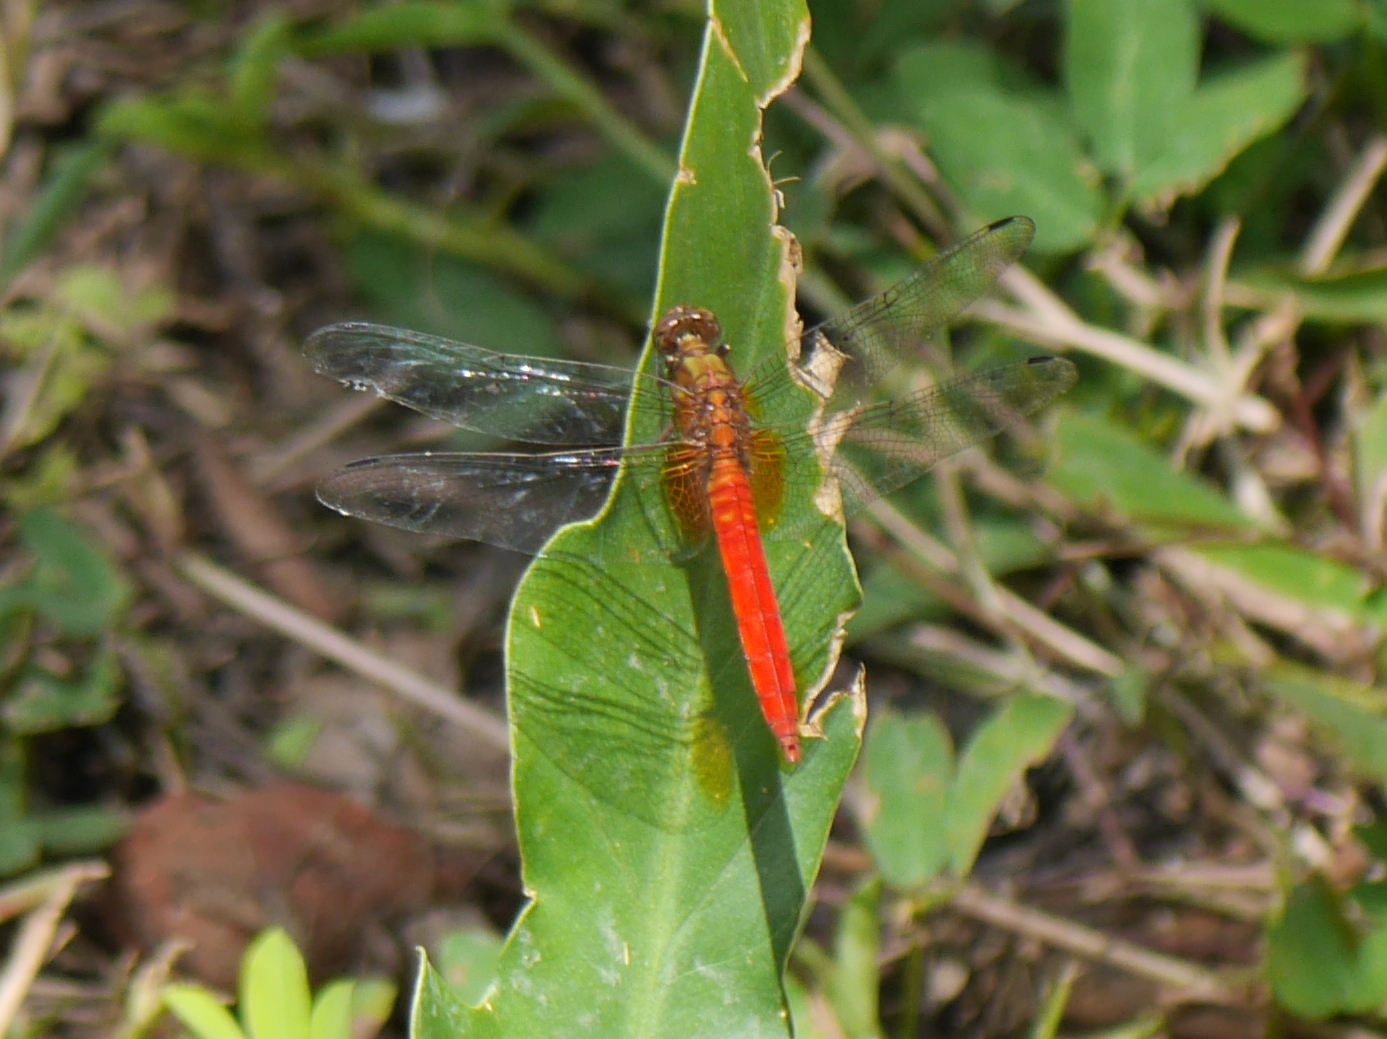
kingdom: Animalia
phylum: Arthropoda
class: Insecta
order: Odonata
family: Libellulidae
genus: Orthetrum
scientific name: Orthetrum testaceum
